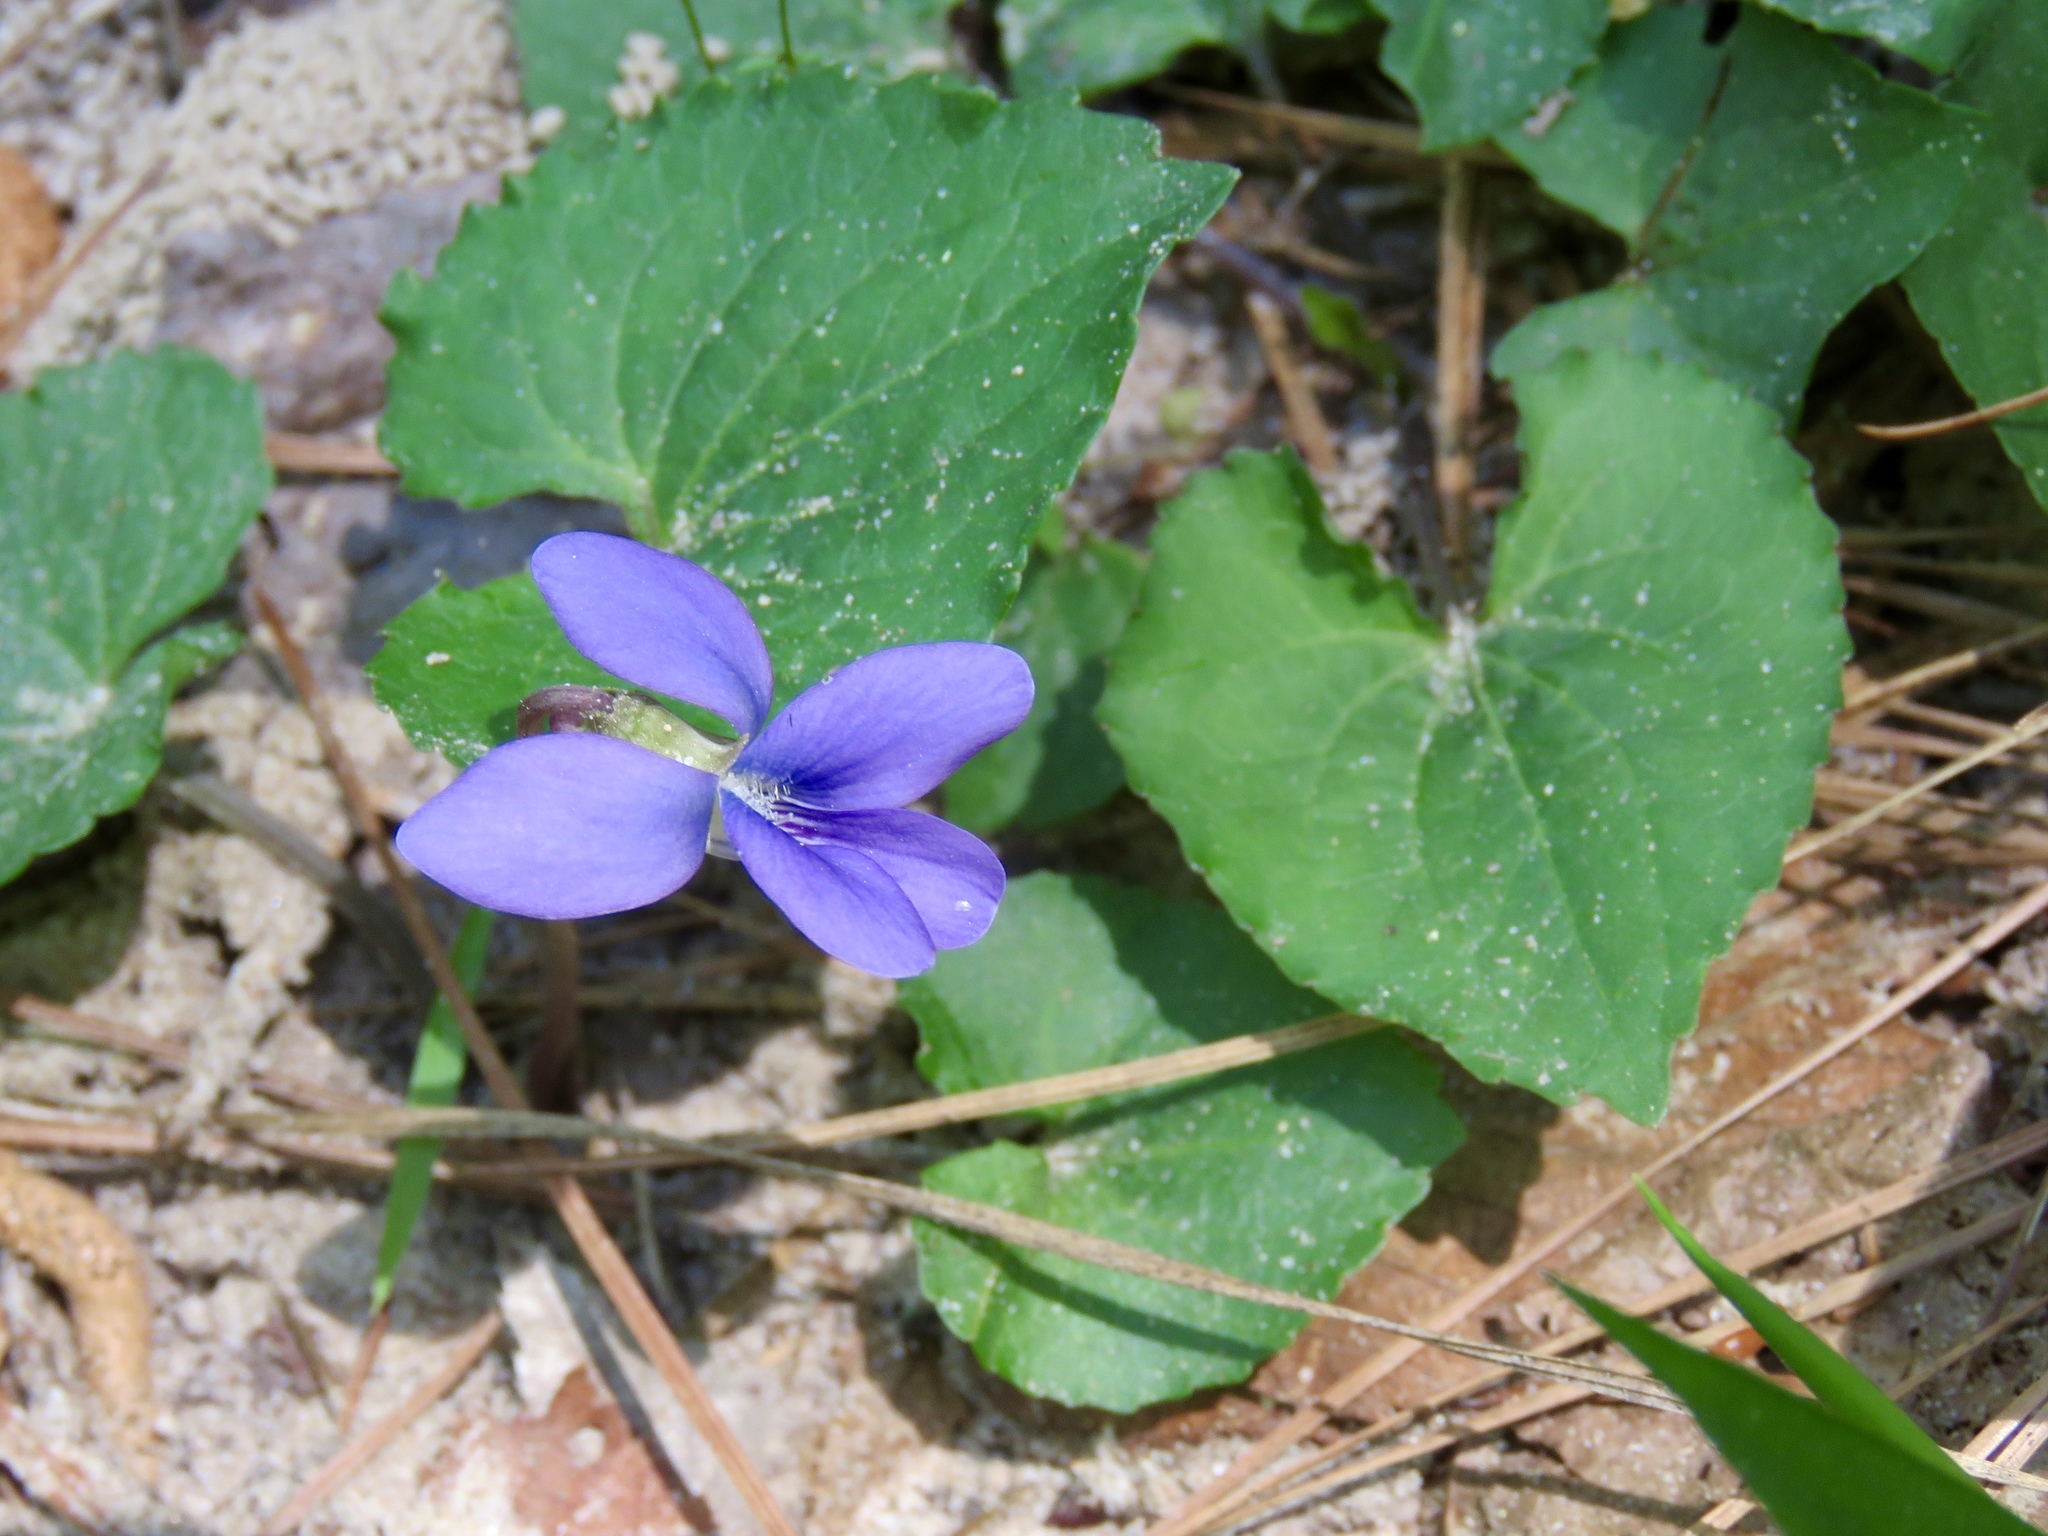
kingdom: Plantae
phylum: Tracheophyta
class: Magnoliopsida
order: Malpighiales
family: Violaceae
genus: Viola
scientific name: Viola sororia
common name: Dooryard violet
